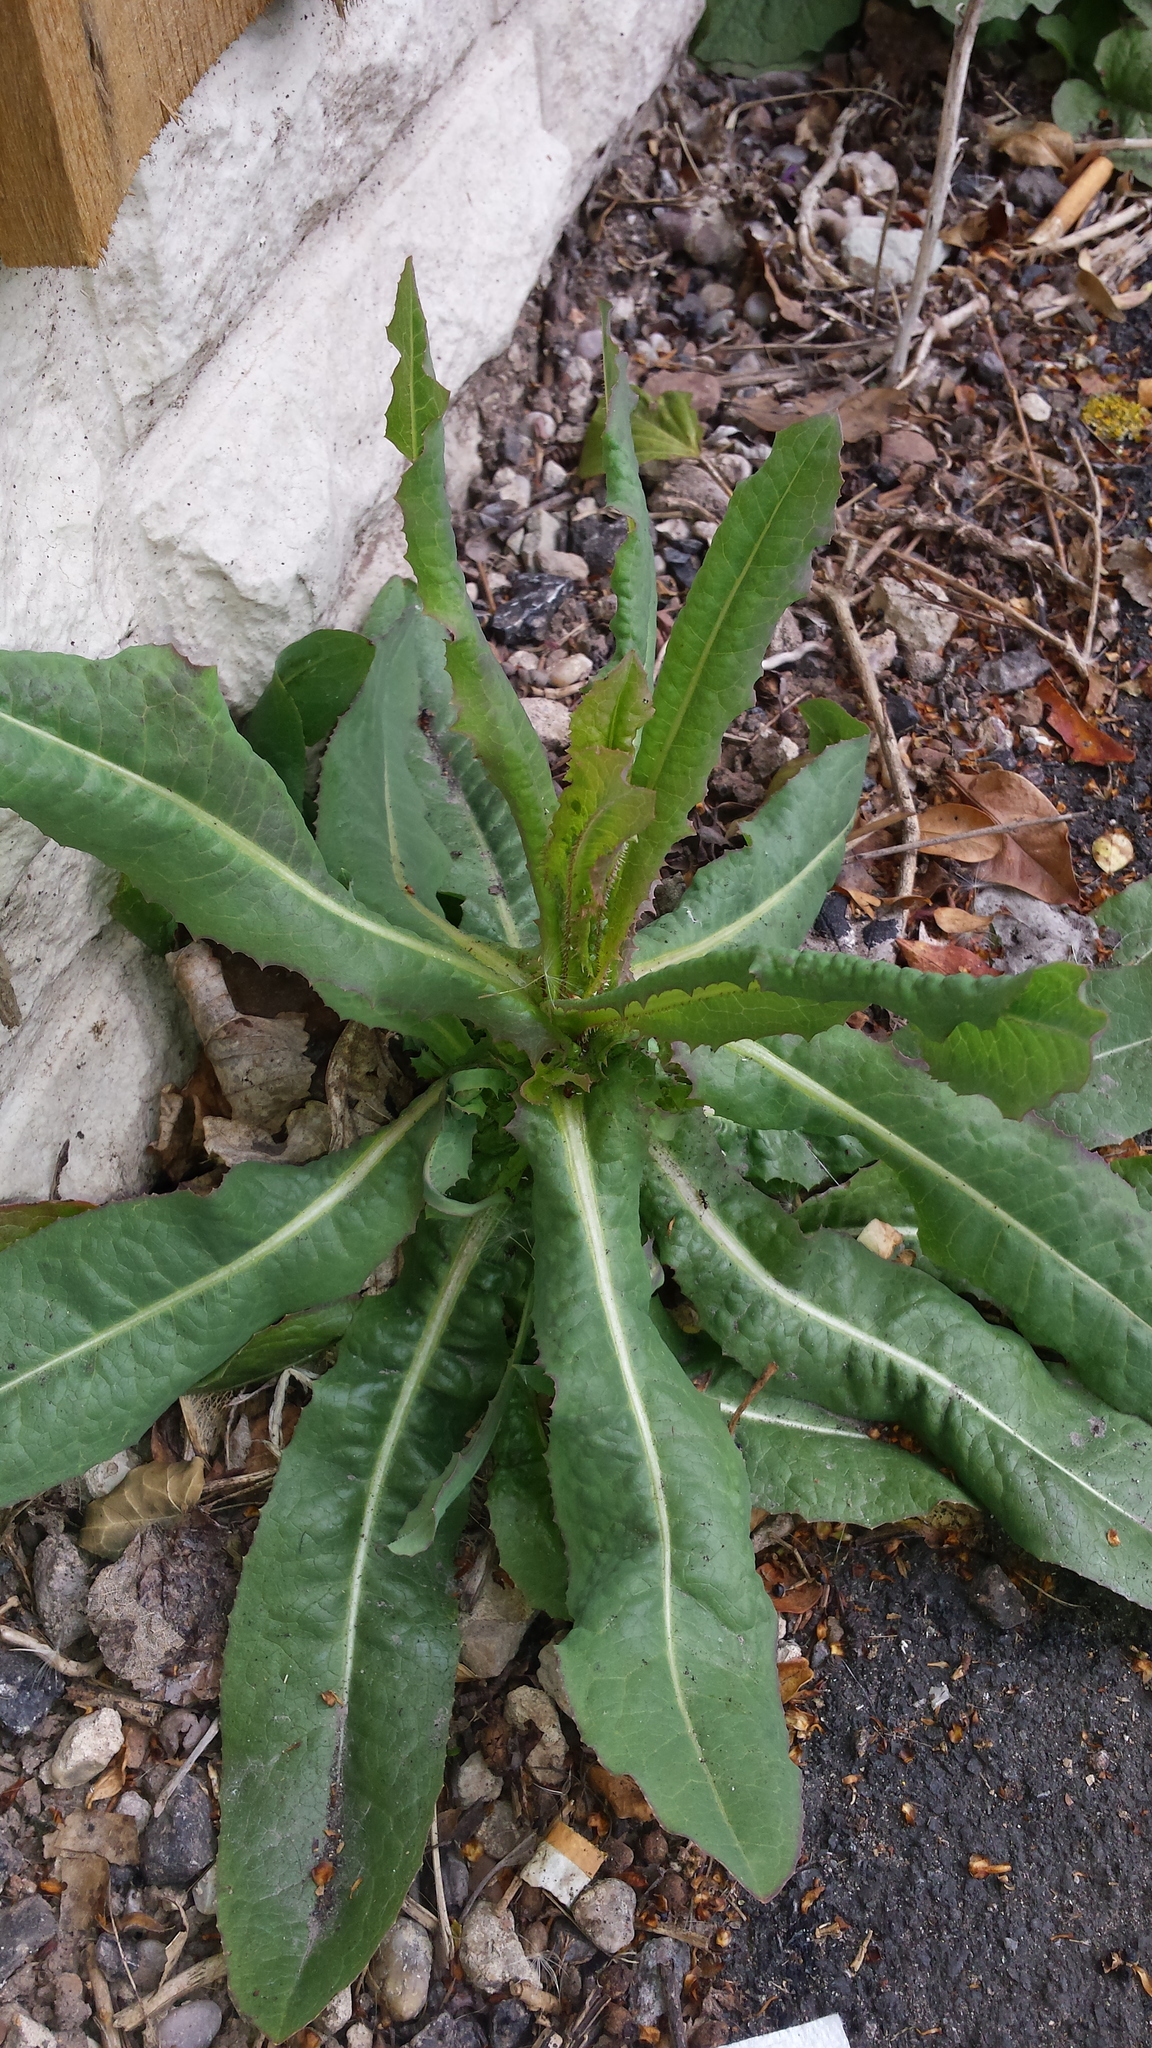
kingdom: Plantae
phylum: Tracheophyta
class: Magnoliopsida
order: Asterales
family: Asteraceae
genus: Lactuca
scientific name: Lactuca serriola
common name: Prickly lettuce
